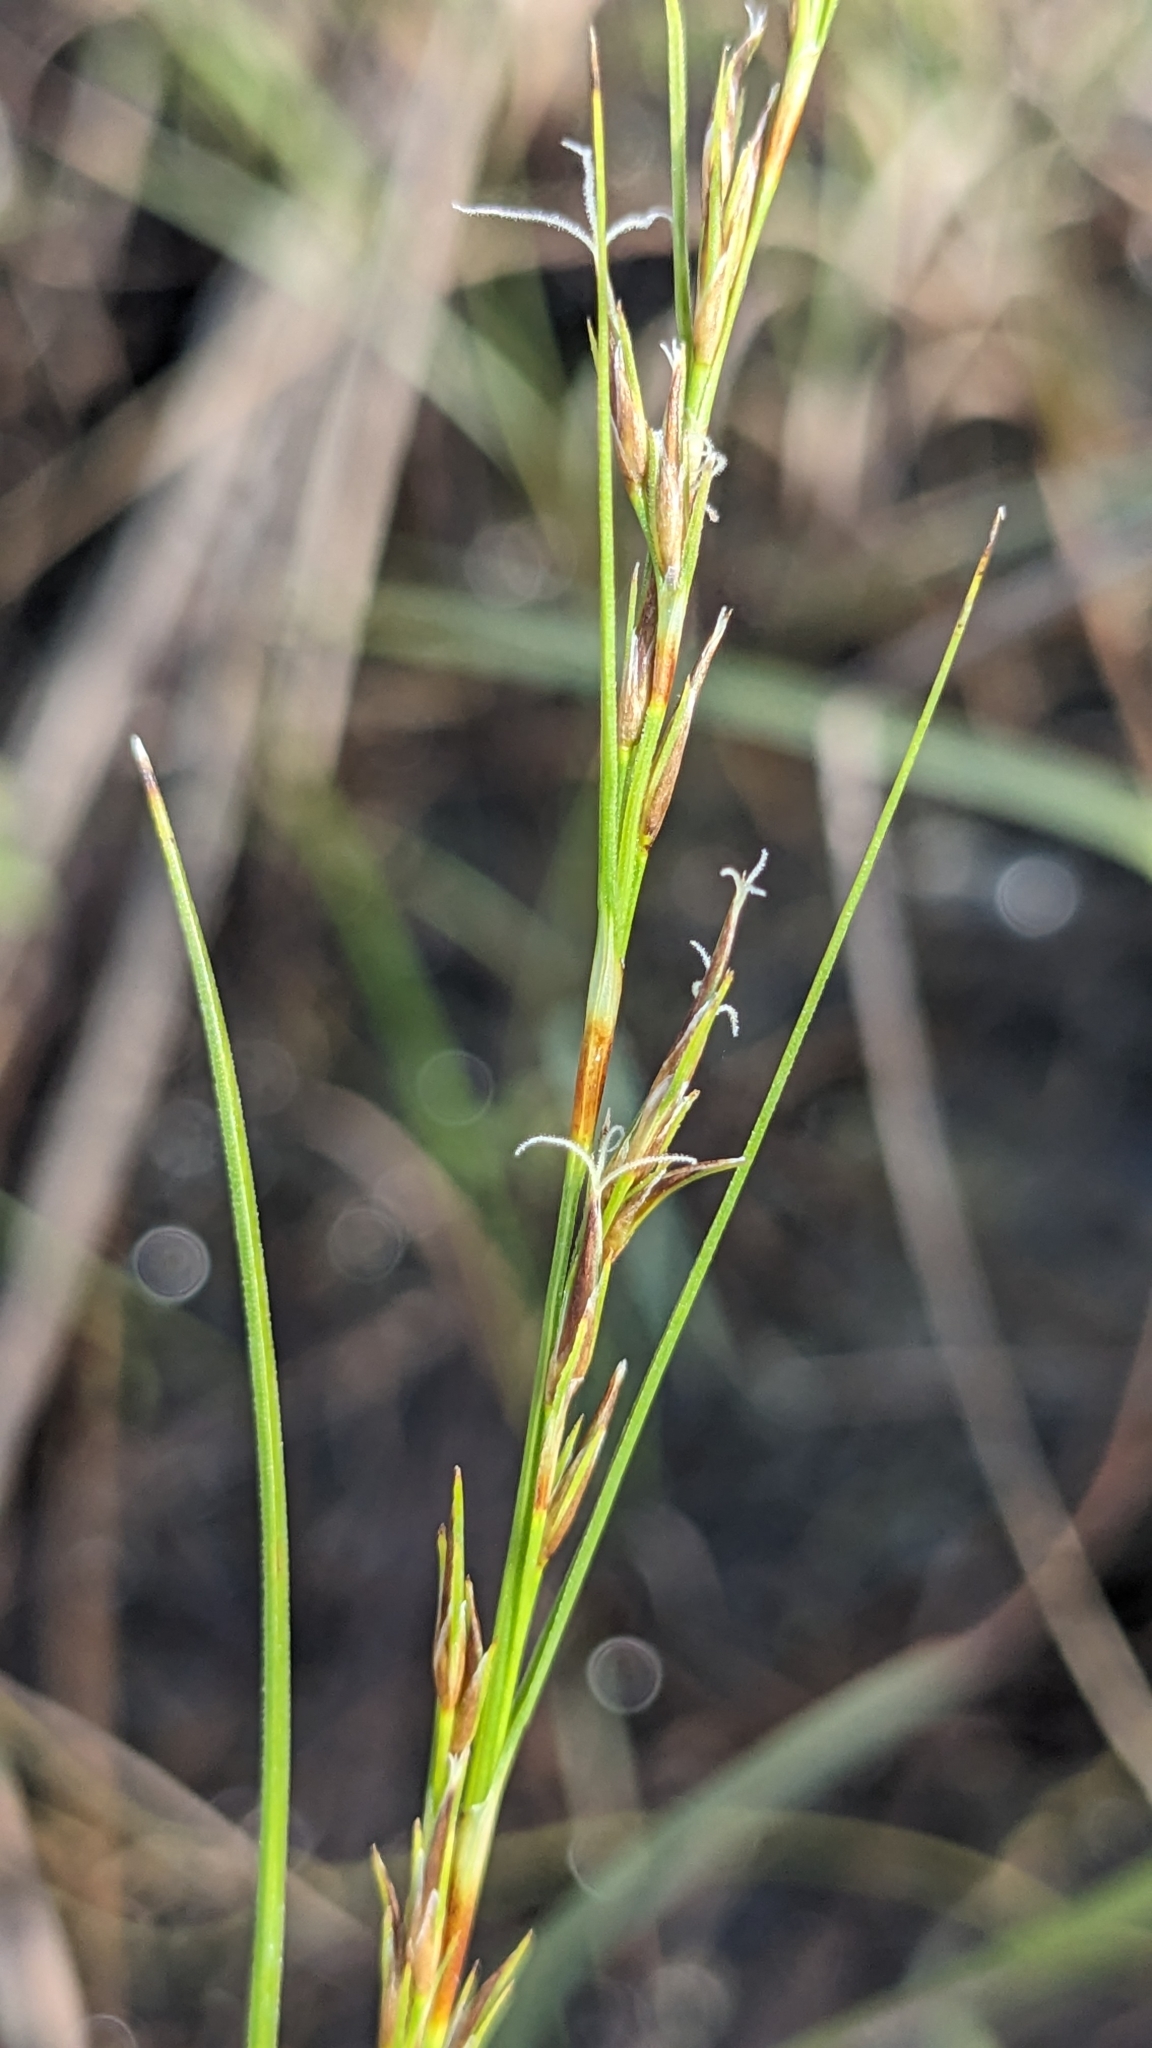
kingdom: Plantae
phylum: Tracheophyta
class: Liliopsida
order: Poales
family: Cyperaceae
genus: Schoenus
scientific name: Schoenus falcatus
